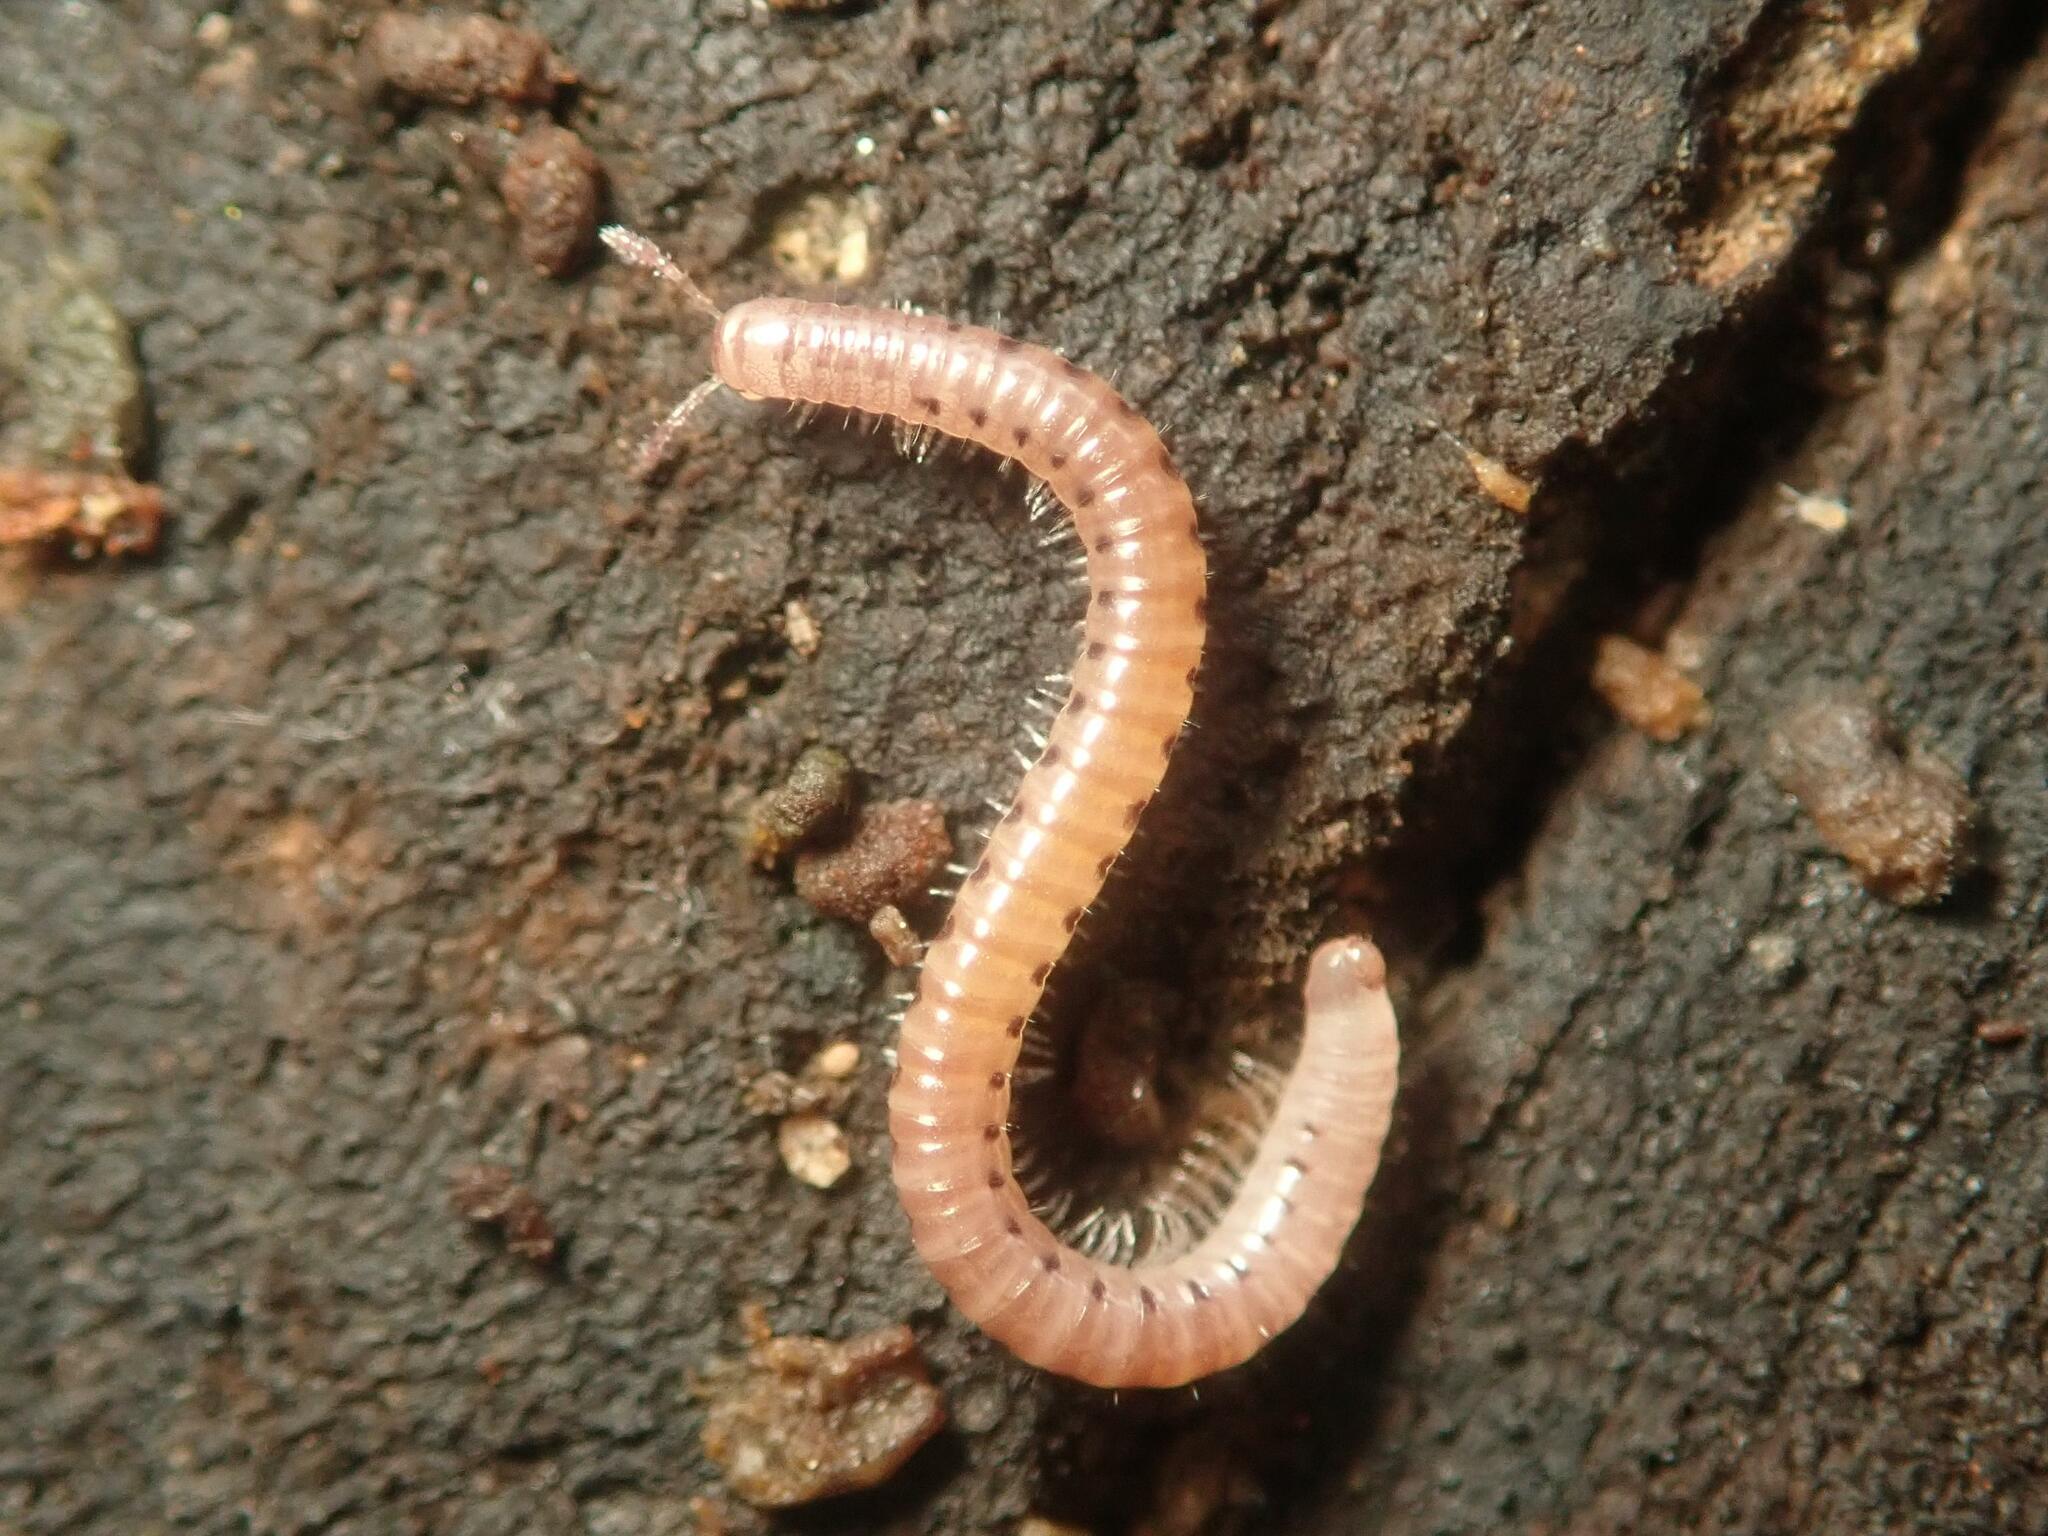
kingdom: Animalia
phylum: Arthropoda
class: Diplopoda
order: Julida
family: Blaniulidae
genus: Blaniulus
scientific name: Blaniulus guttulatus
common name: Spotted snake millipede
